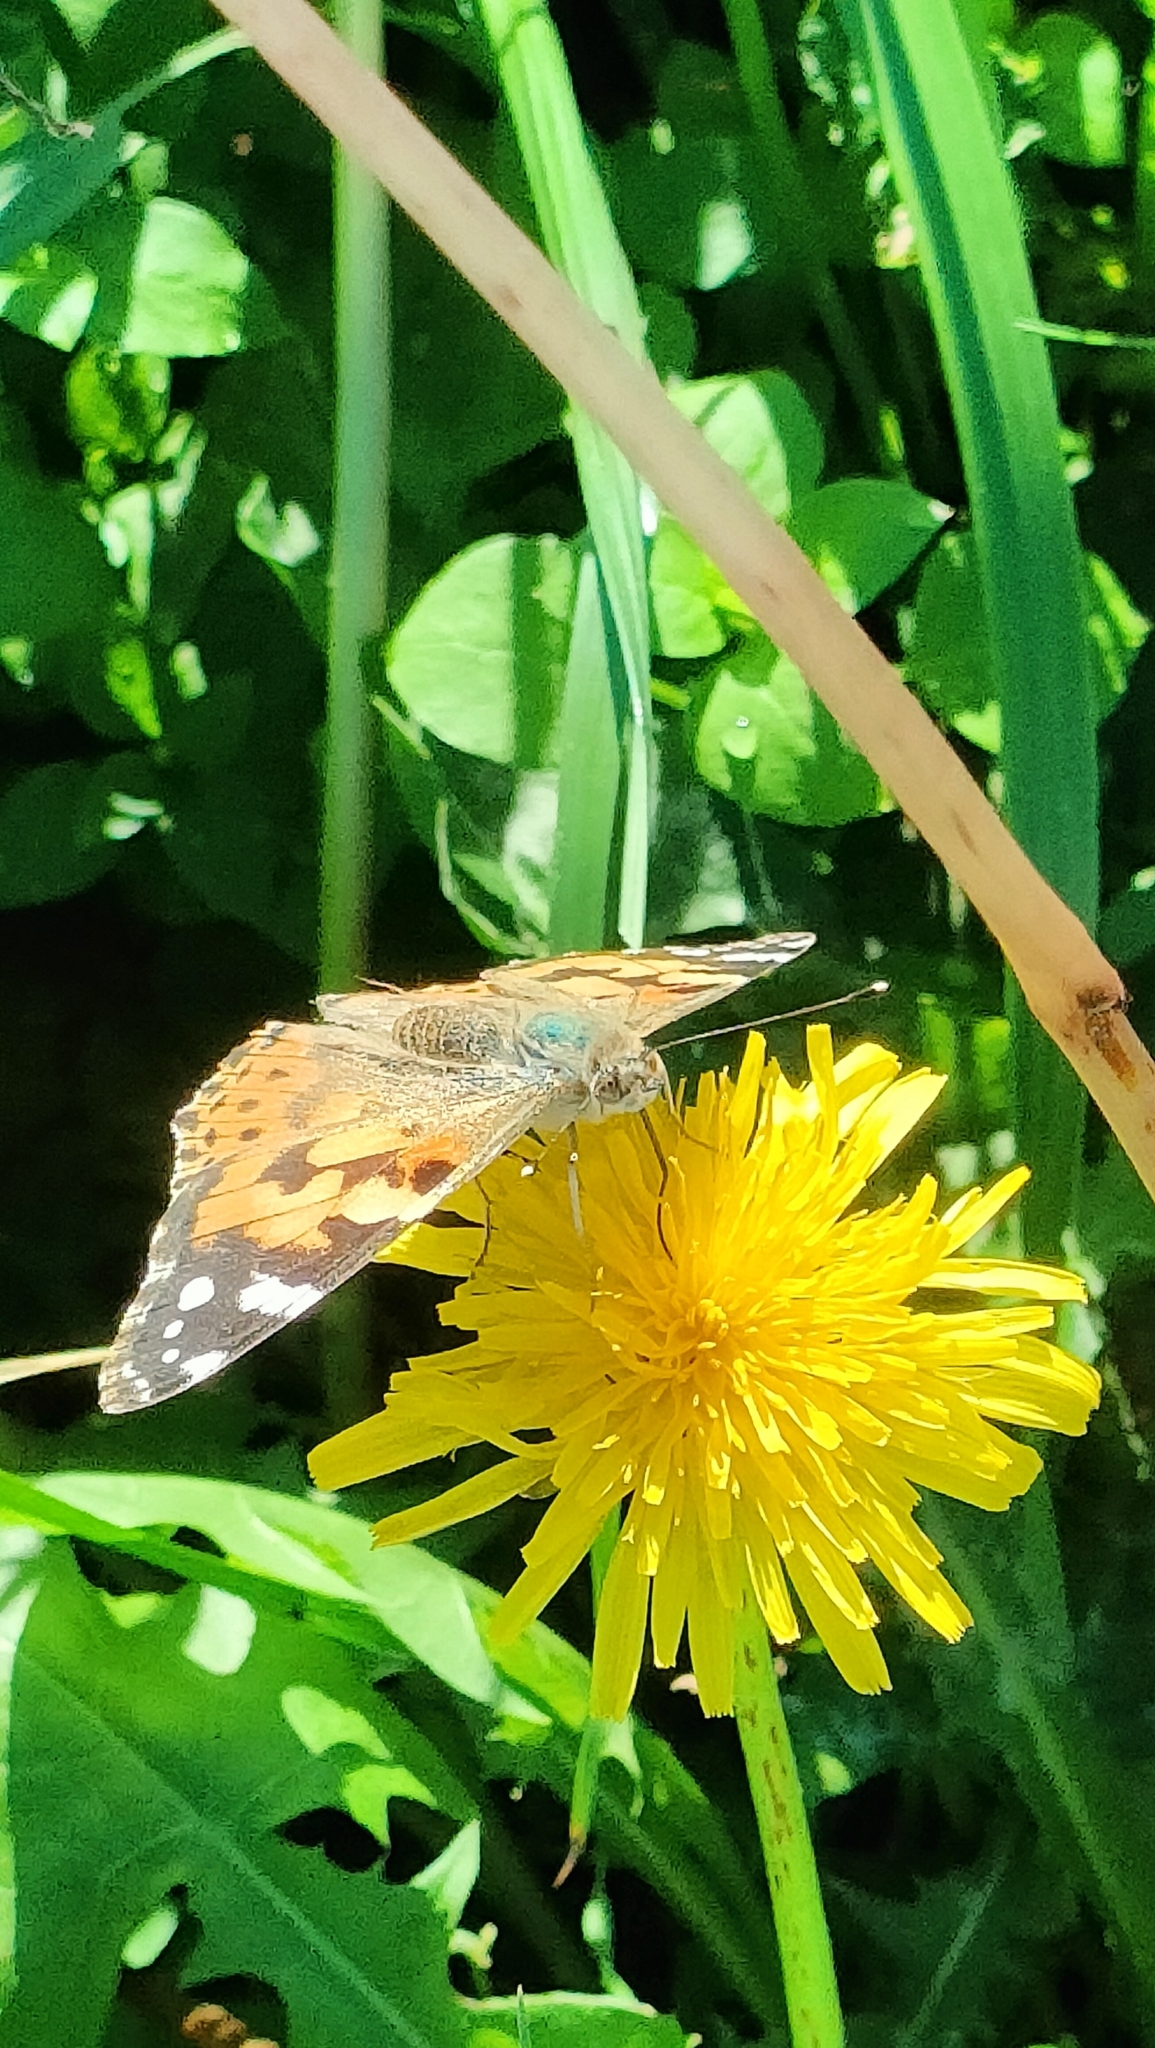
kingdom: Animalia
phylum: Arthropoda
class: Insecta
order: Lepidoptera
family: Nymphalidae
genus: Vanessa
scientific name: Vanessa cardui
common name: Painted lady
